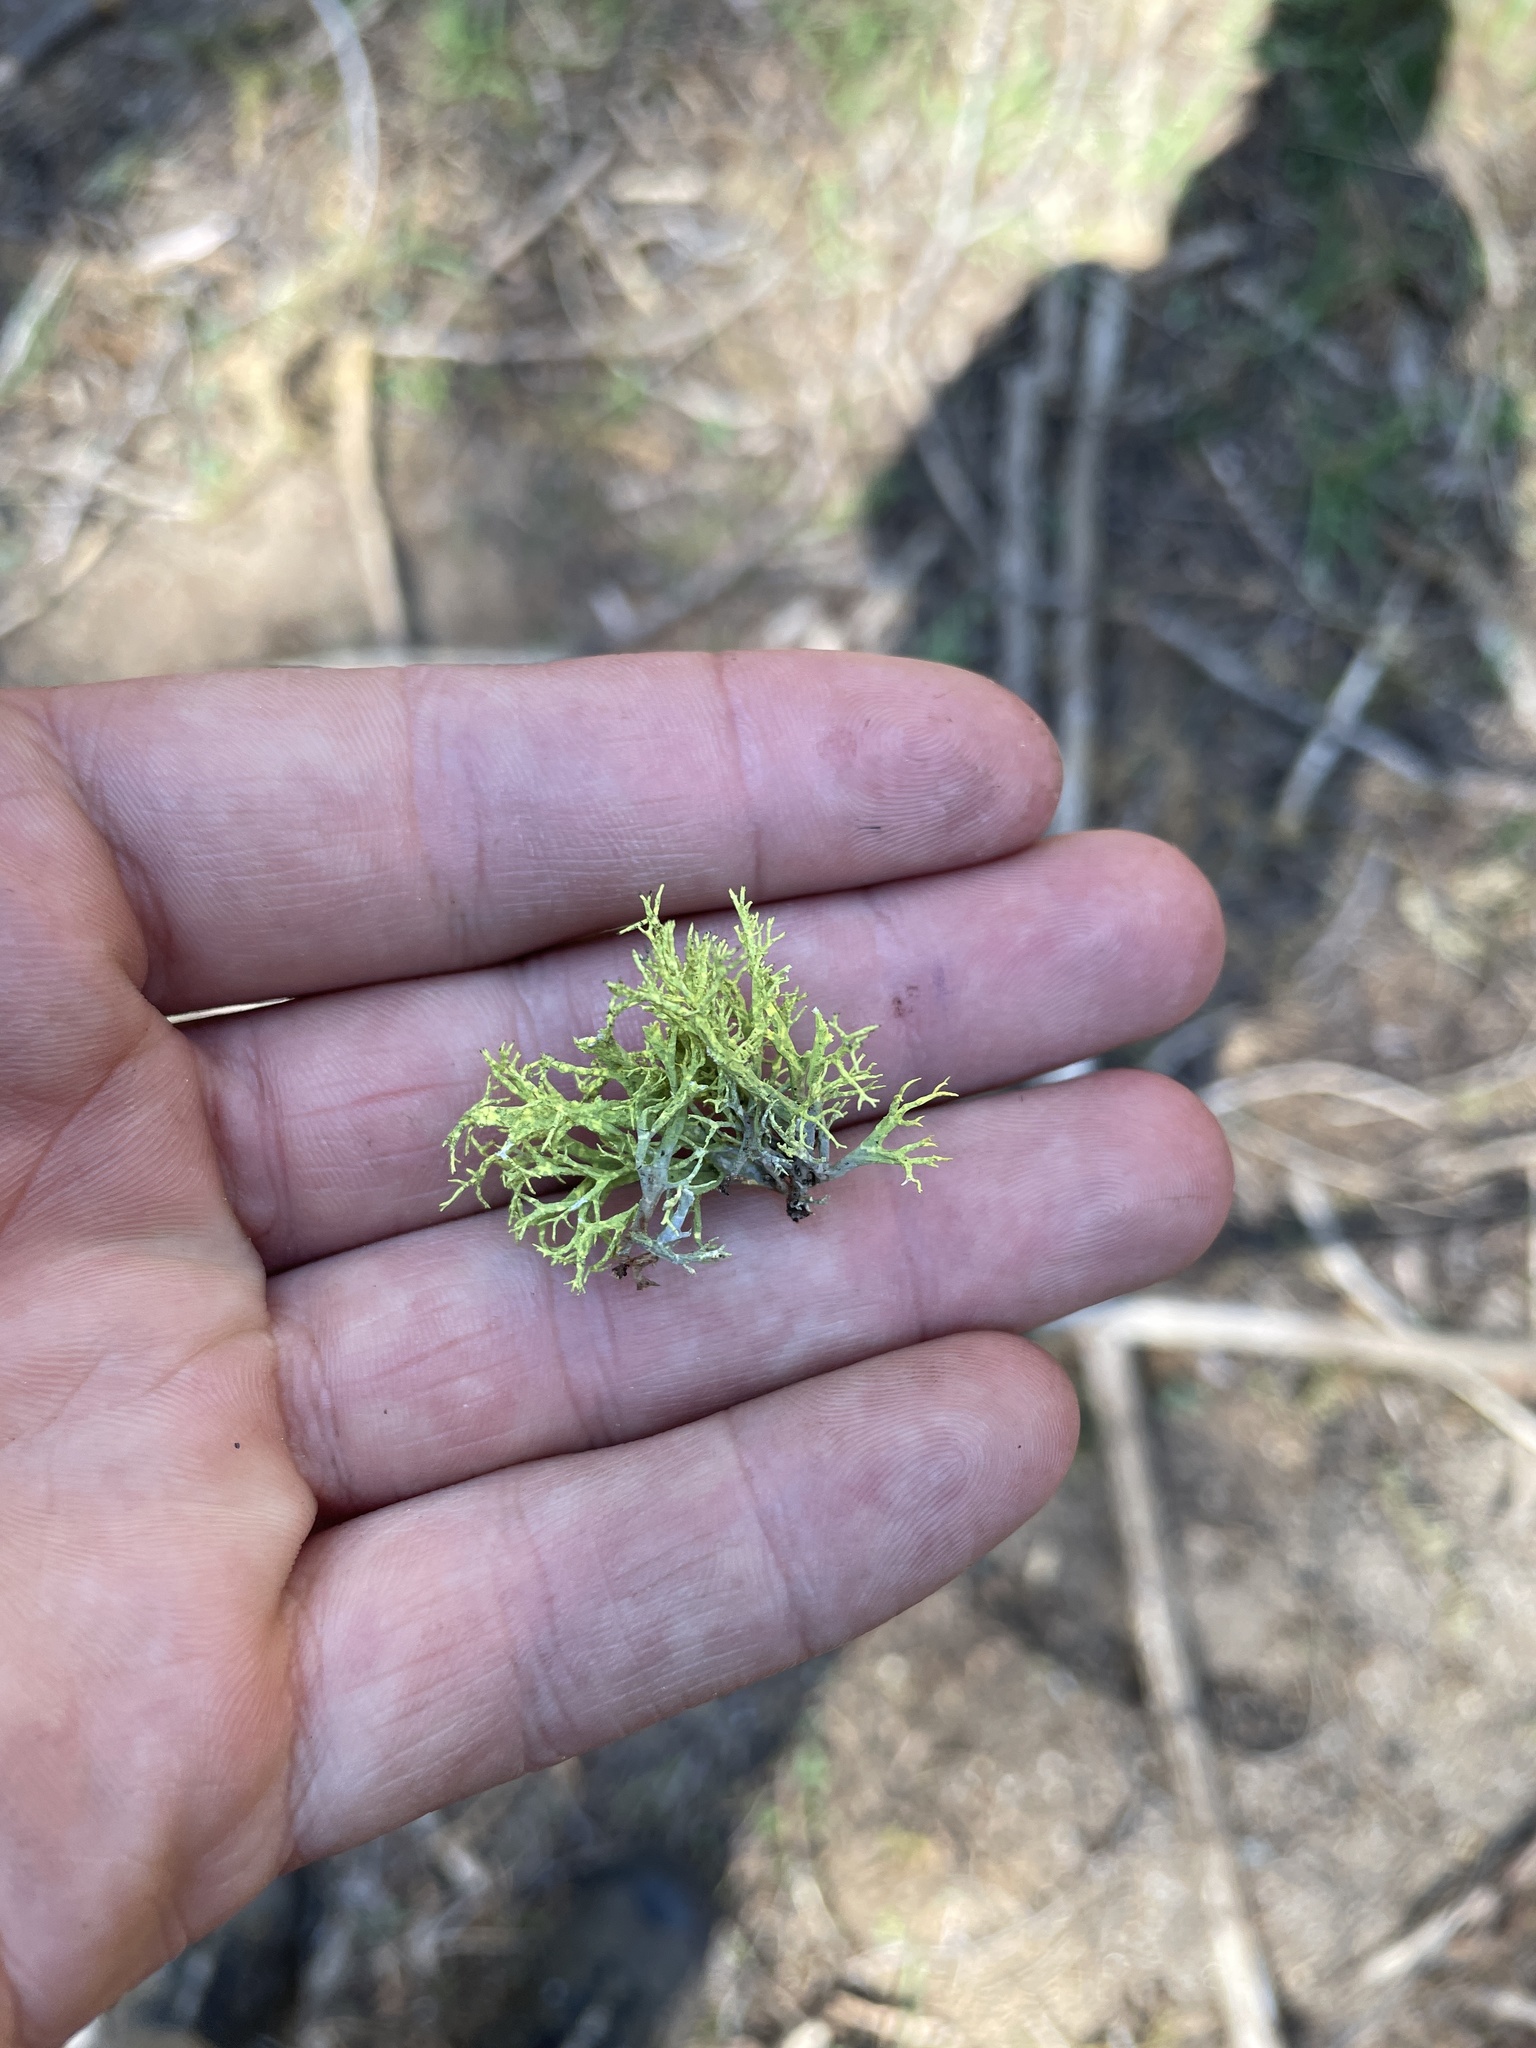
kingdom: Fungi
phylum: Ascomycota
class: Lecanoromycetes
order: Lecanorales
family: Parmeliaceae
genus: Letharia
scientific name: Letharia vulpina
